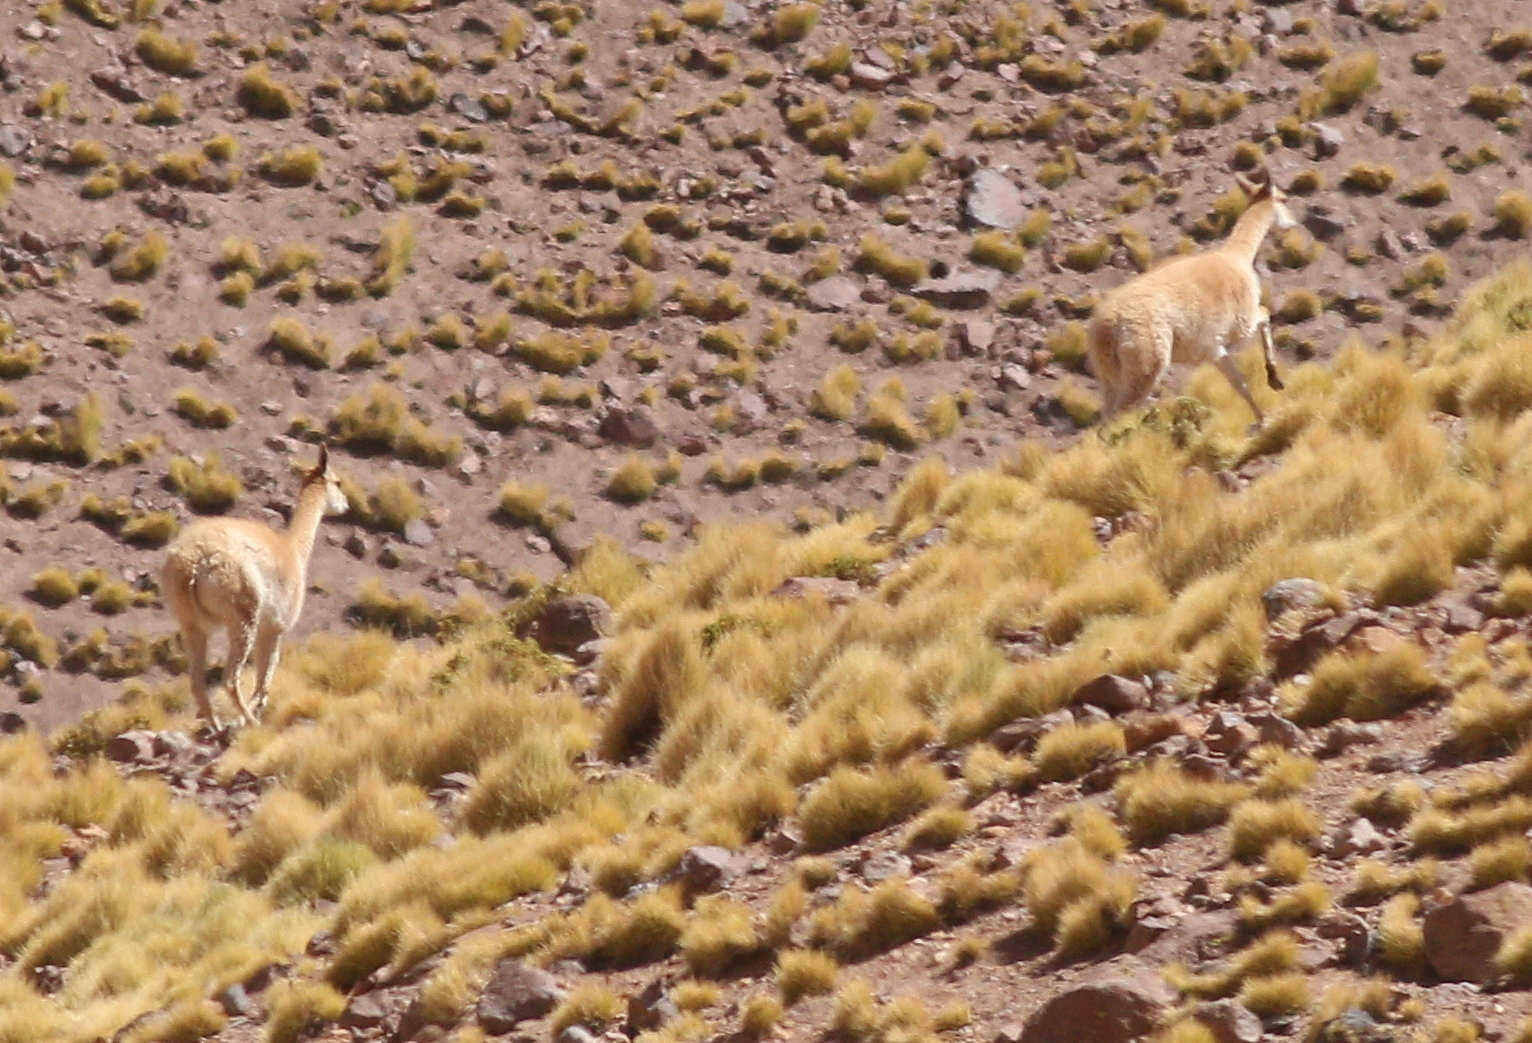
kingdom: Animalia
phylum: Chordata
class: Mammalia
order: Artiodactyla
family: Camelidae
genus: Vicugna
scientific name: Vicugna vicugna
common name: Vicugna
